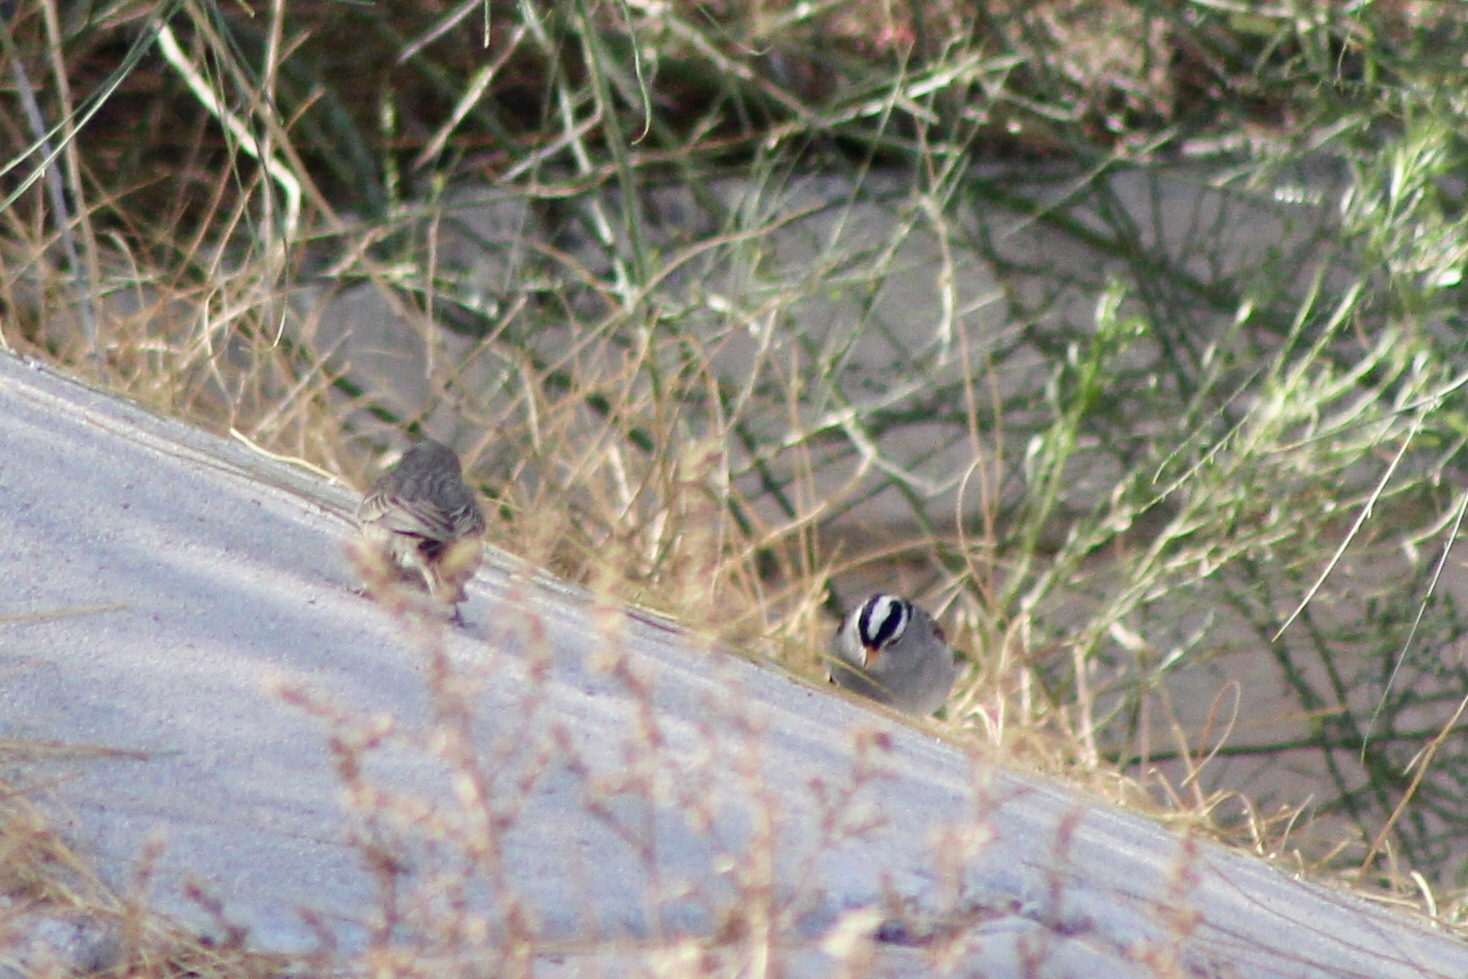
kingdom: Animalia
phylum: Chordata
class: Aves
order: Passeriformes
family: Passerellidae
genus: Zonotrichia
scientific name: Zonotrichia leucophrys
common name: White-crowned sparrow
